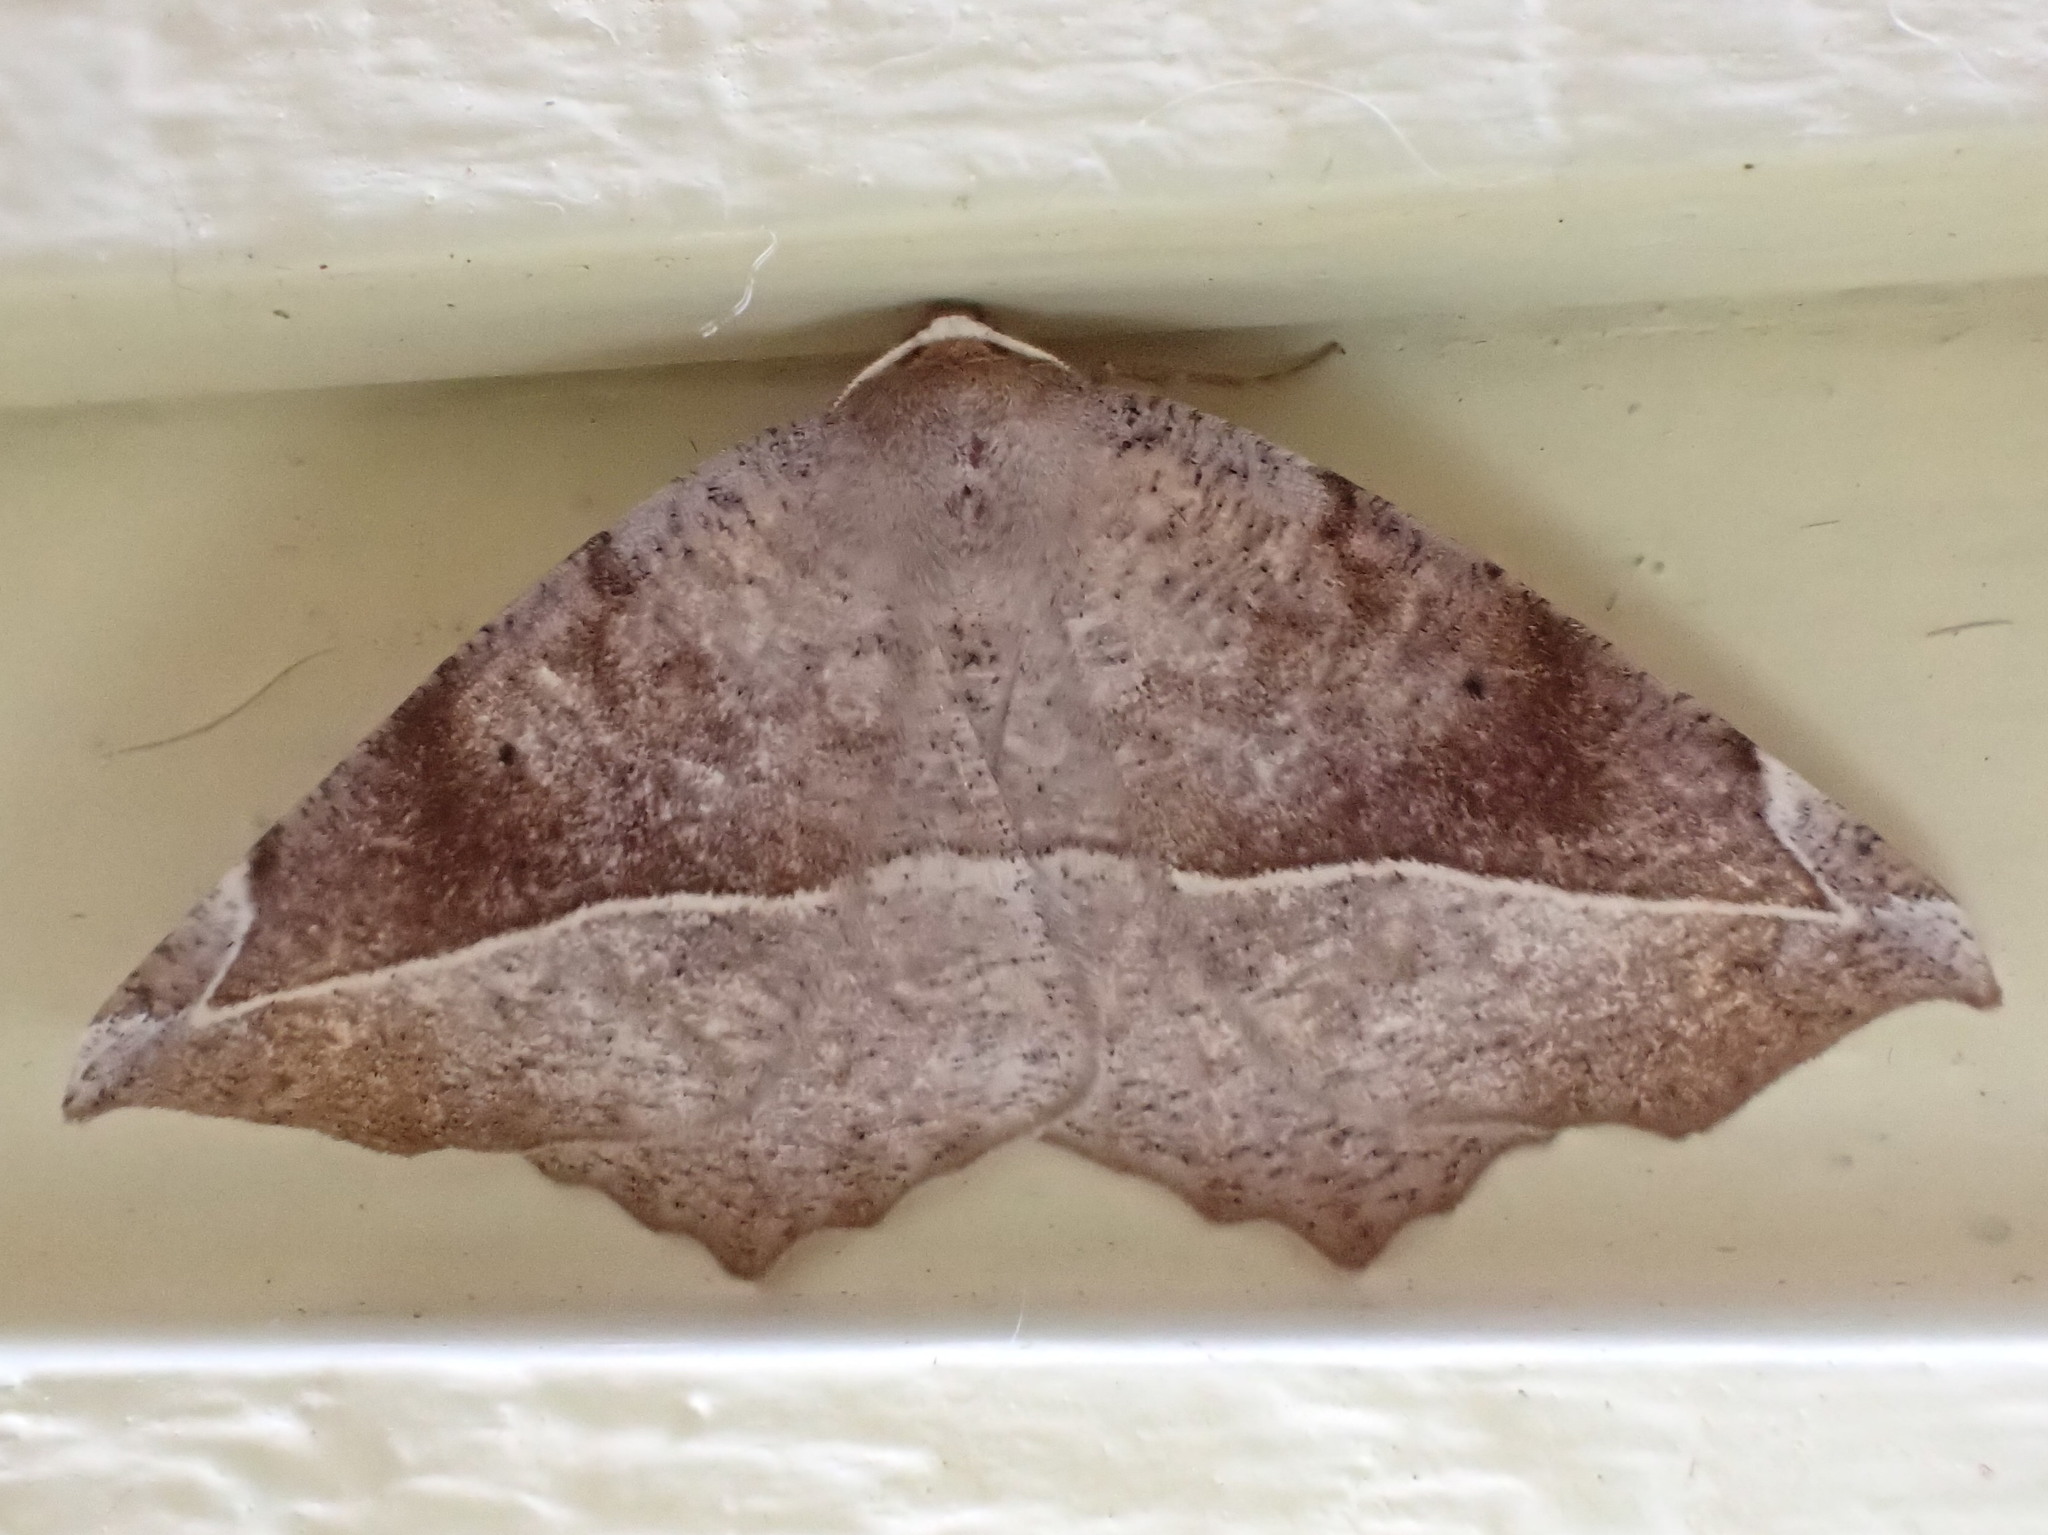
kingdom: Animalia
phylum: Arthropoda
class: Insecta
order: Lepidoptera
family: Geometridae
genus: Eutrapela
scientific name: Eutrapela clemataria
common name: Curved-toothed geometer
